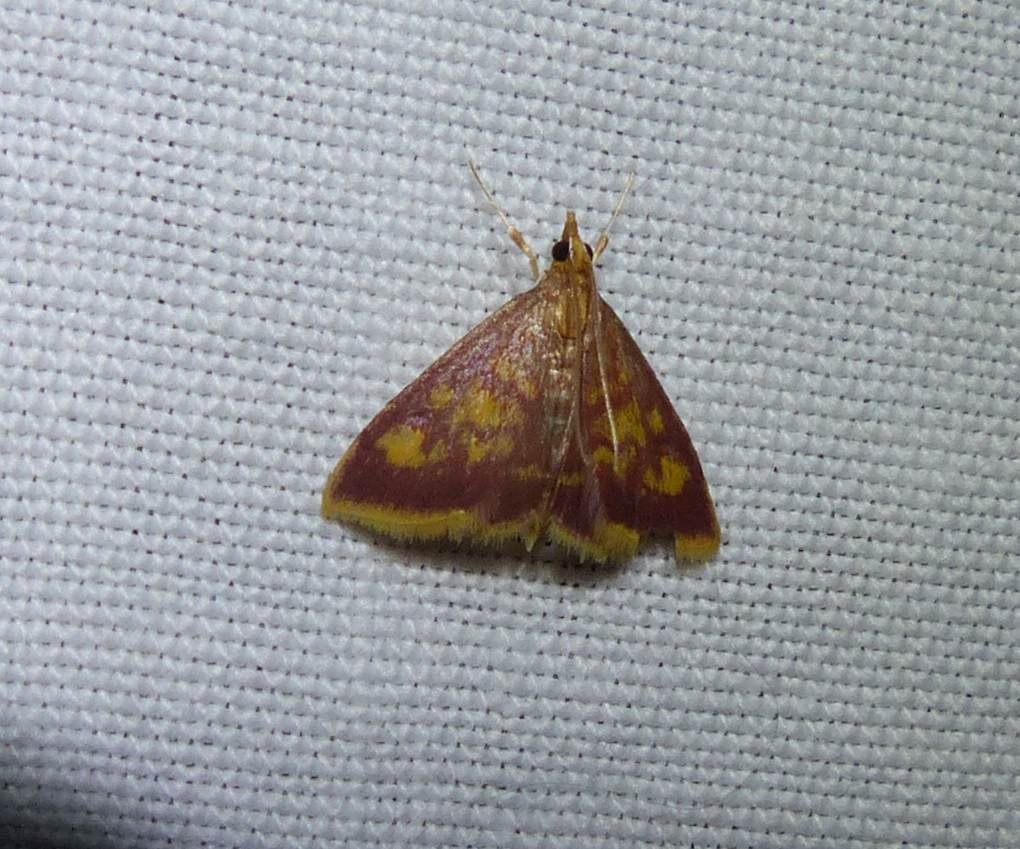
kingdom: Animalia
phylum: Arthropoda
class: Insecta
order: Lepidoptera
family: Crambidae
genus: Pyrausta
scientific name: Pyrausta acrionalis
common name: Mint-loving pyrausta moth
